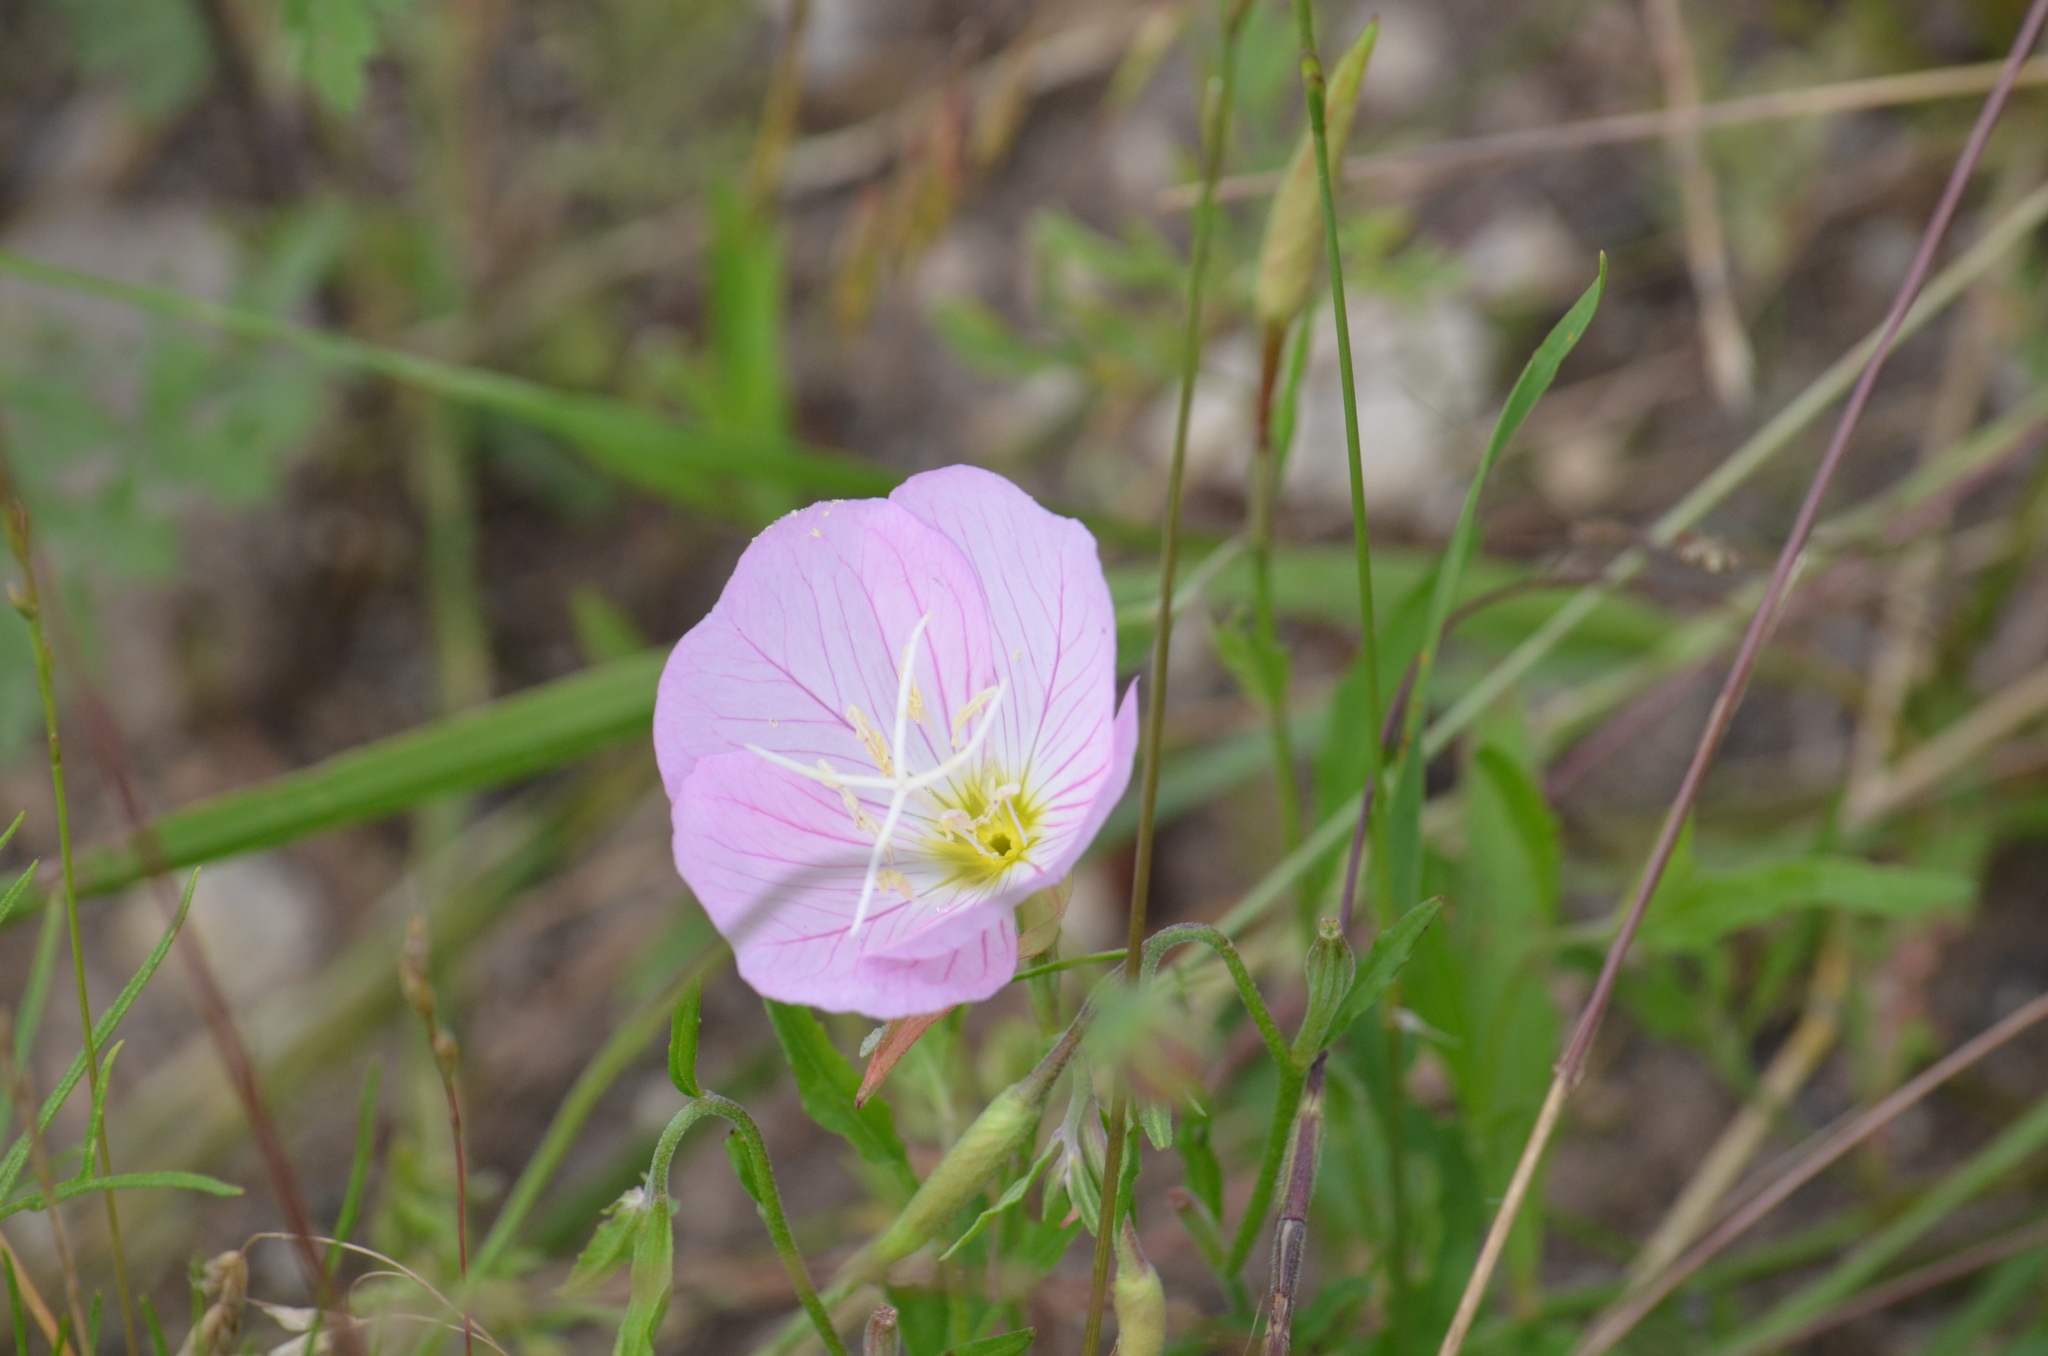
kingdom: Plantae
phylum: Tracheophyta
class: Magnoliopsida
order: Myrtales
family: Onagraceae
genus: Oenothera
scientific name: Oenothera speciosa
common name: White evening-primrose
